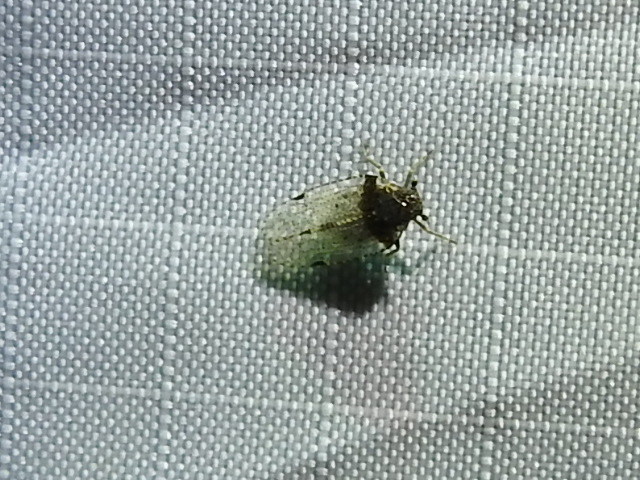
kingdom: Animalia
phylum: Arthropoda
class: Insecta
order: Hemiptera
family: Cixiidae
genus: Cixius
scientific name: Cixius stigmatus
